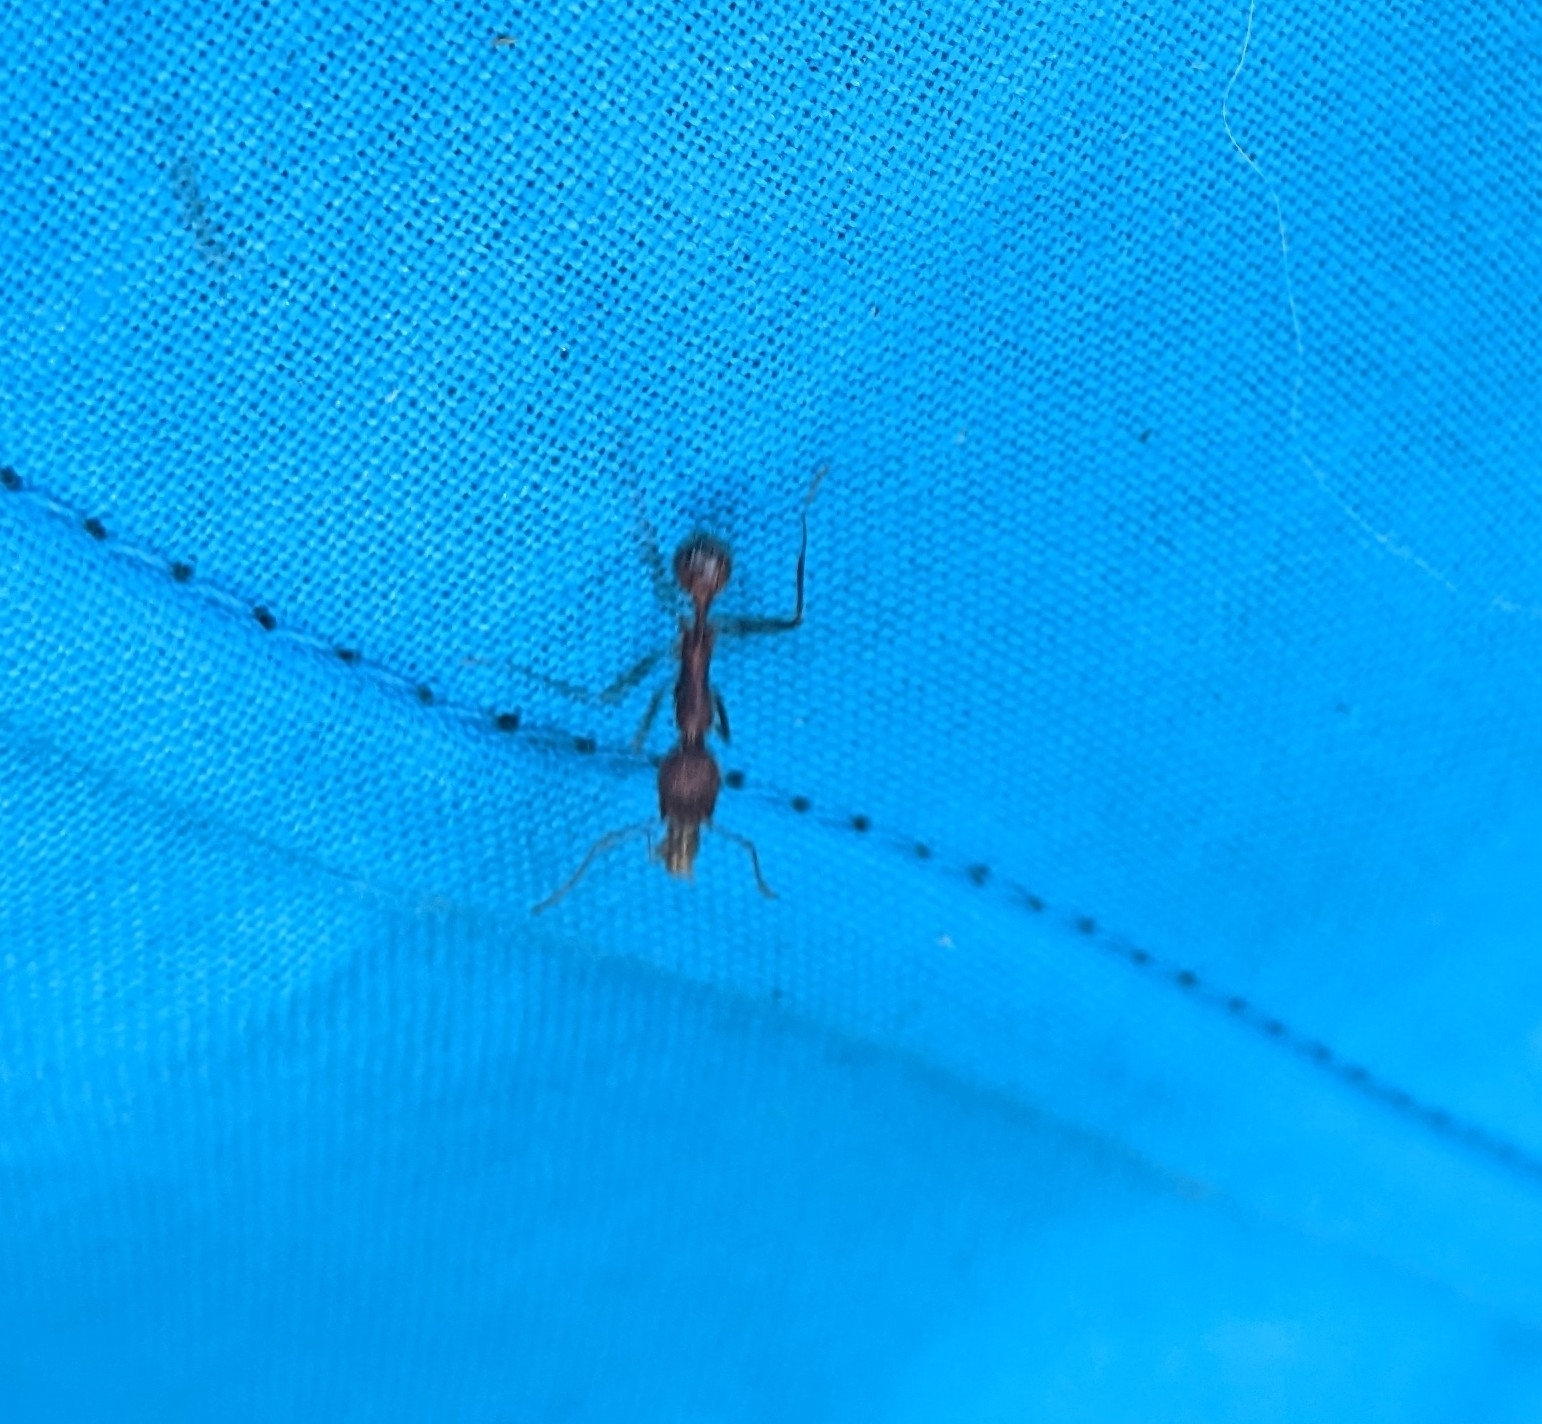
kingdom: Animalia
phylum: Arthropoda
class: Insecta
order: Hymenoptera
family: Formicidae
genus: Novomessor
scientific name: Novomessor albisetosa
